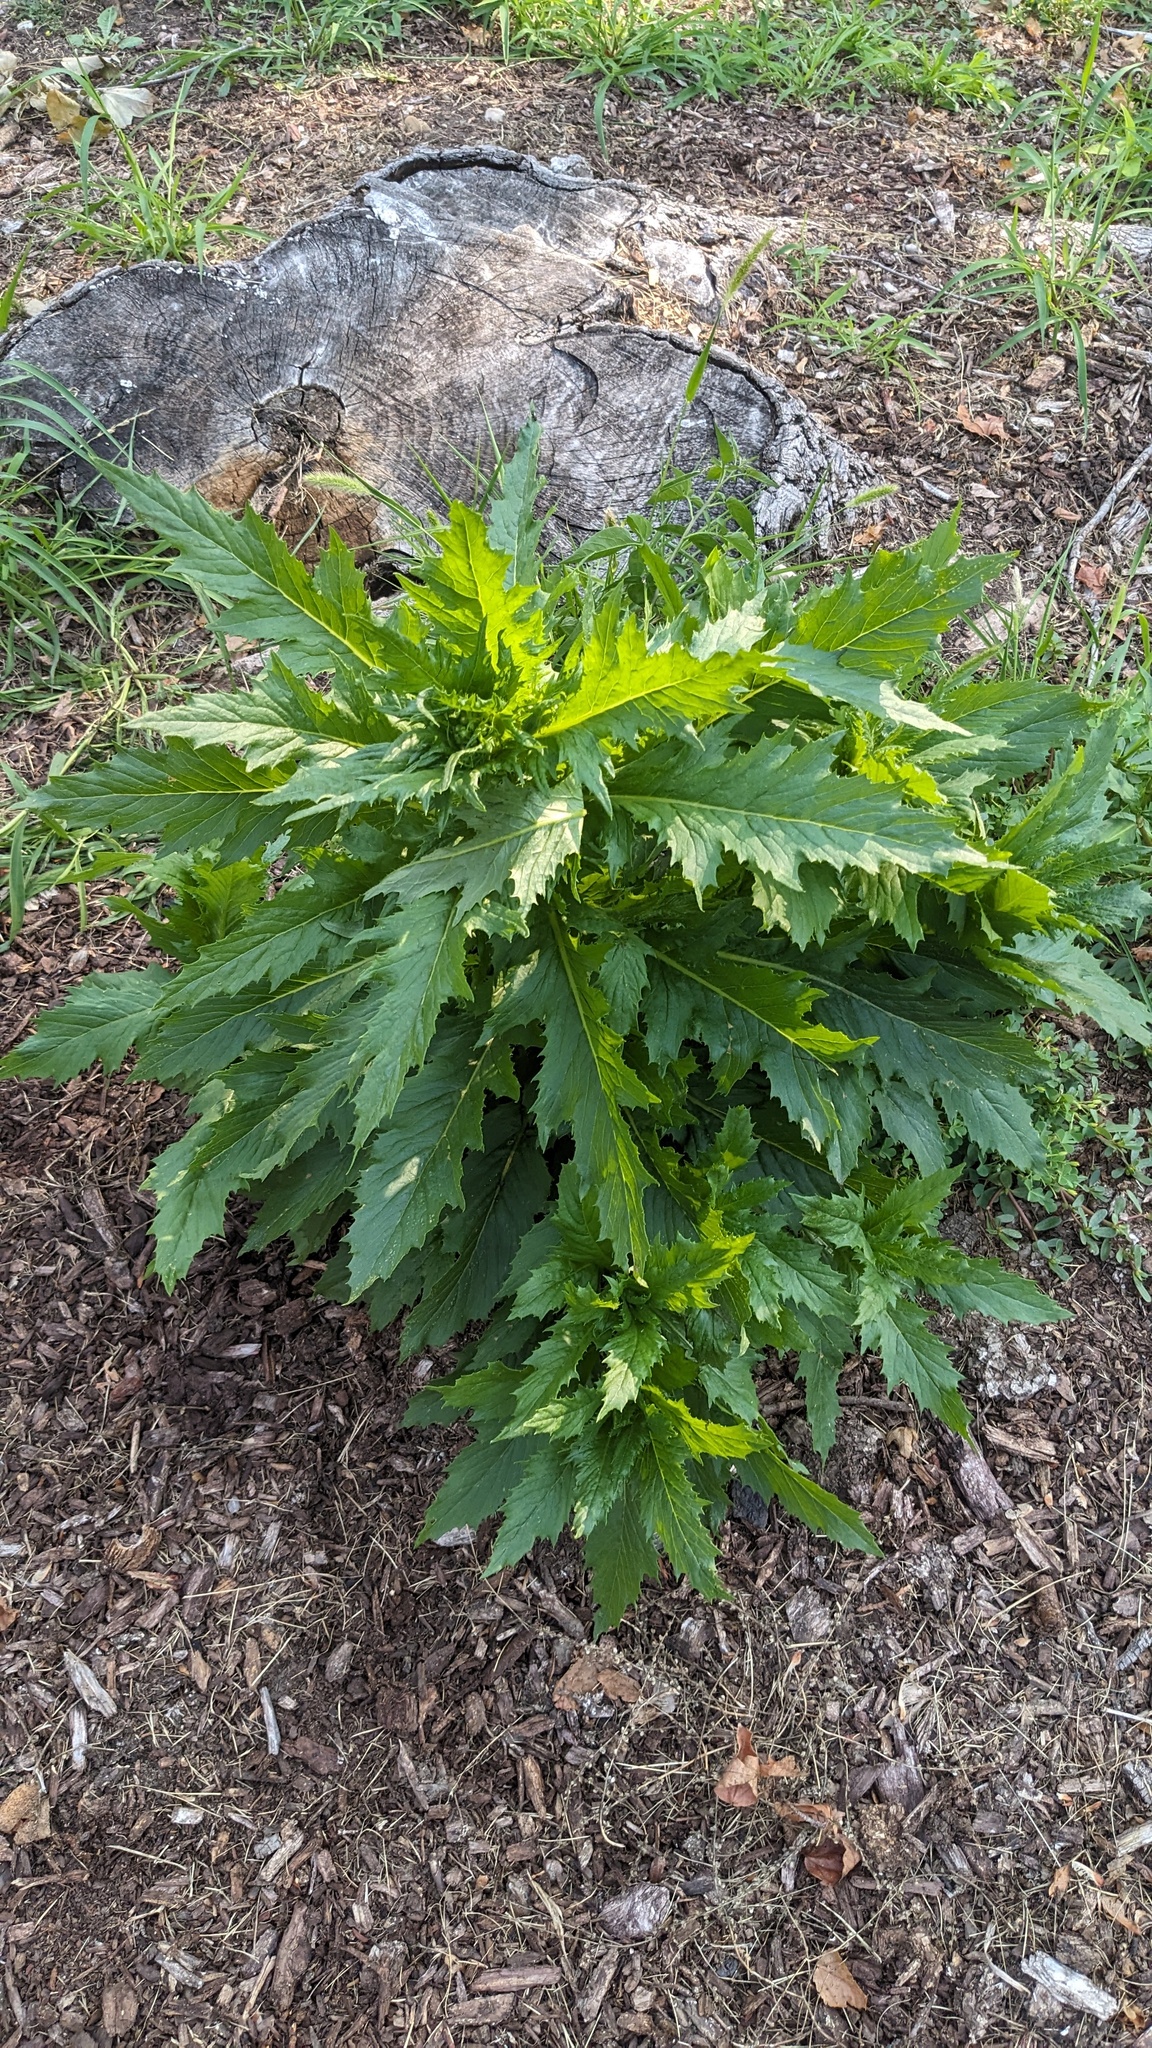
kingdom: Plantae
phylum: Tracheophyta
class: Magnoliopsida
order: Asterales
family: Asteraceae
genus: Erechtites
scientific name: Erechtites hieraciifolius
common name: American burnweed
